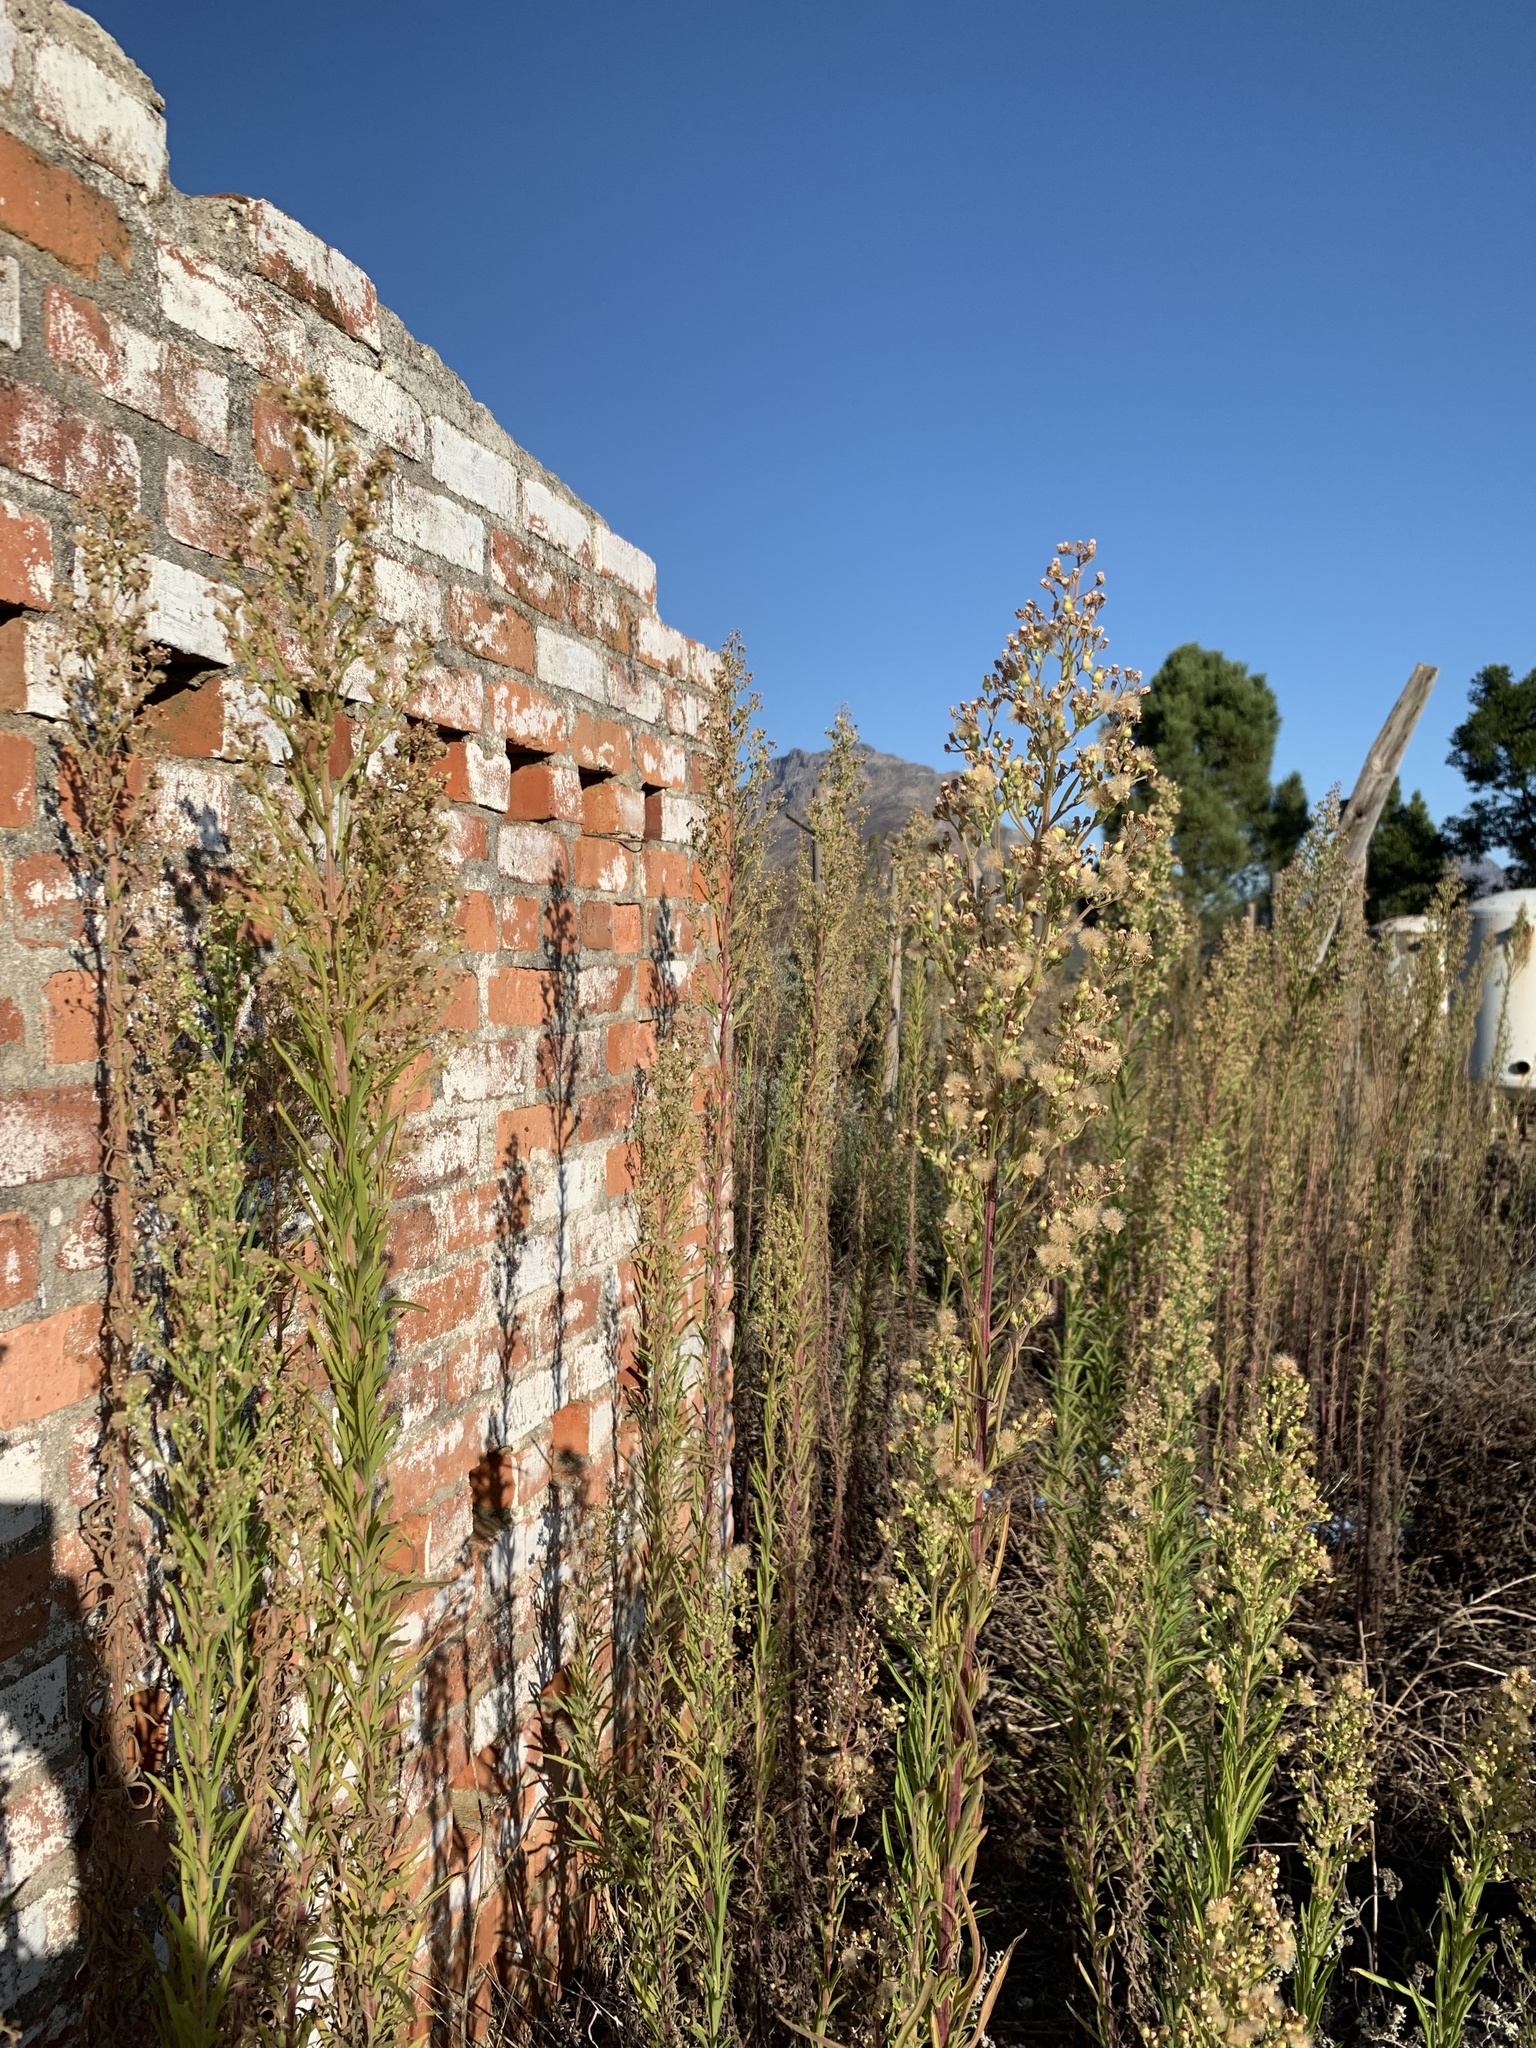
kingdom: Plantae
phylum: Tracheophyta
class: Magnoliopsida
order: Asterales
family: Asteraceae
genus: Erigeron
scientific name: Erigeron sumatrensis
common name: Daisy
